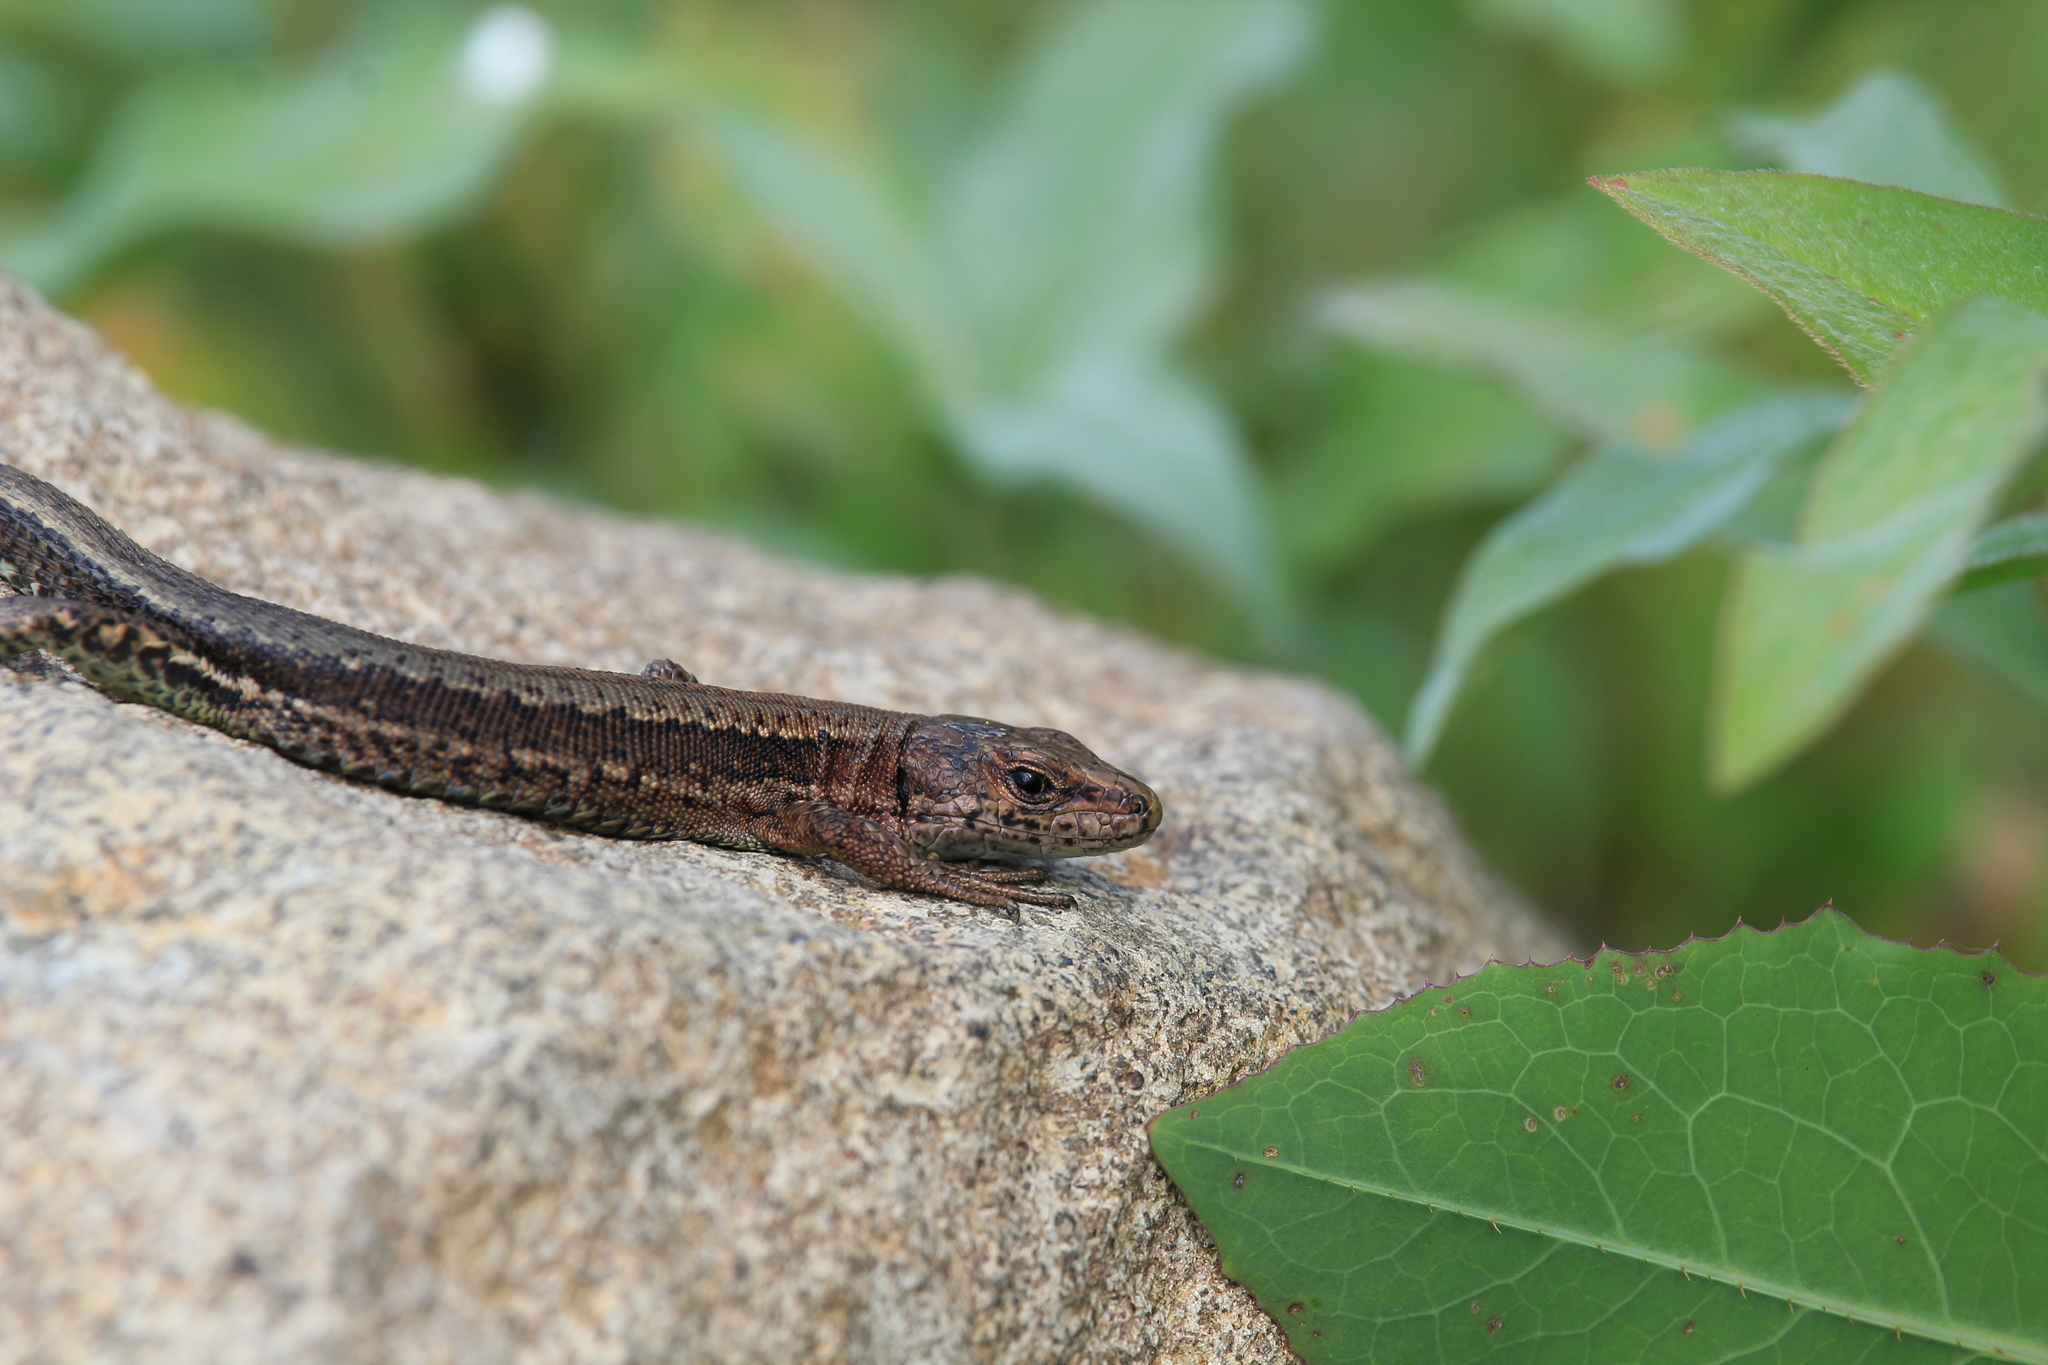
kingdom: Animalia
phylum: Chordata
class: Squamata
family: Lacertidae
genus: Darevskia
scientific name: Darevskia derjugini
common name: Derjugin's lizard
